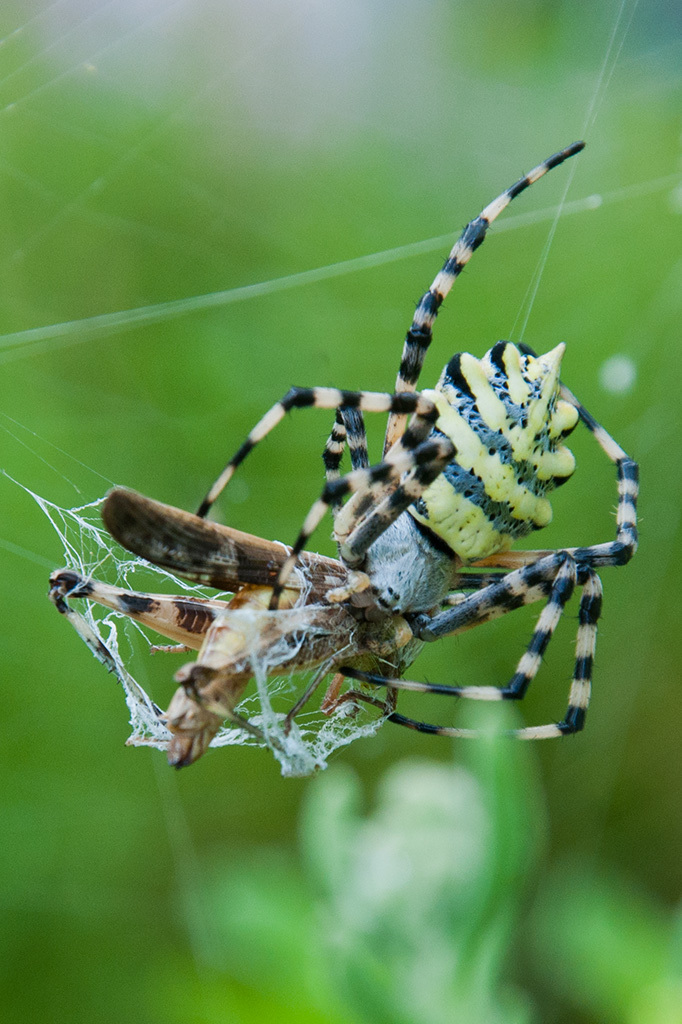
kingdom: Animalia
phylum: Arthropoda
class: Arachnida
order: Araneae
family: Araneidae
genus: Argiope
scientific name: Argiope australis
